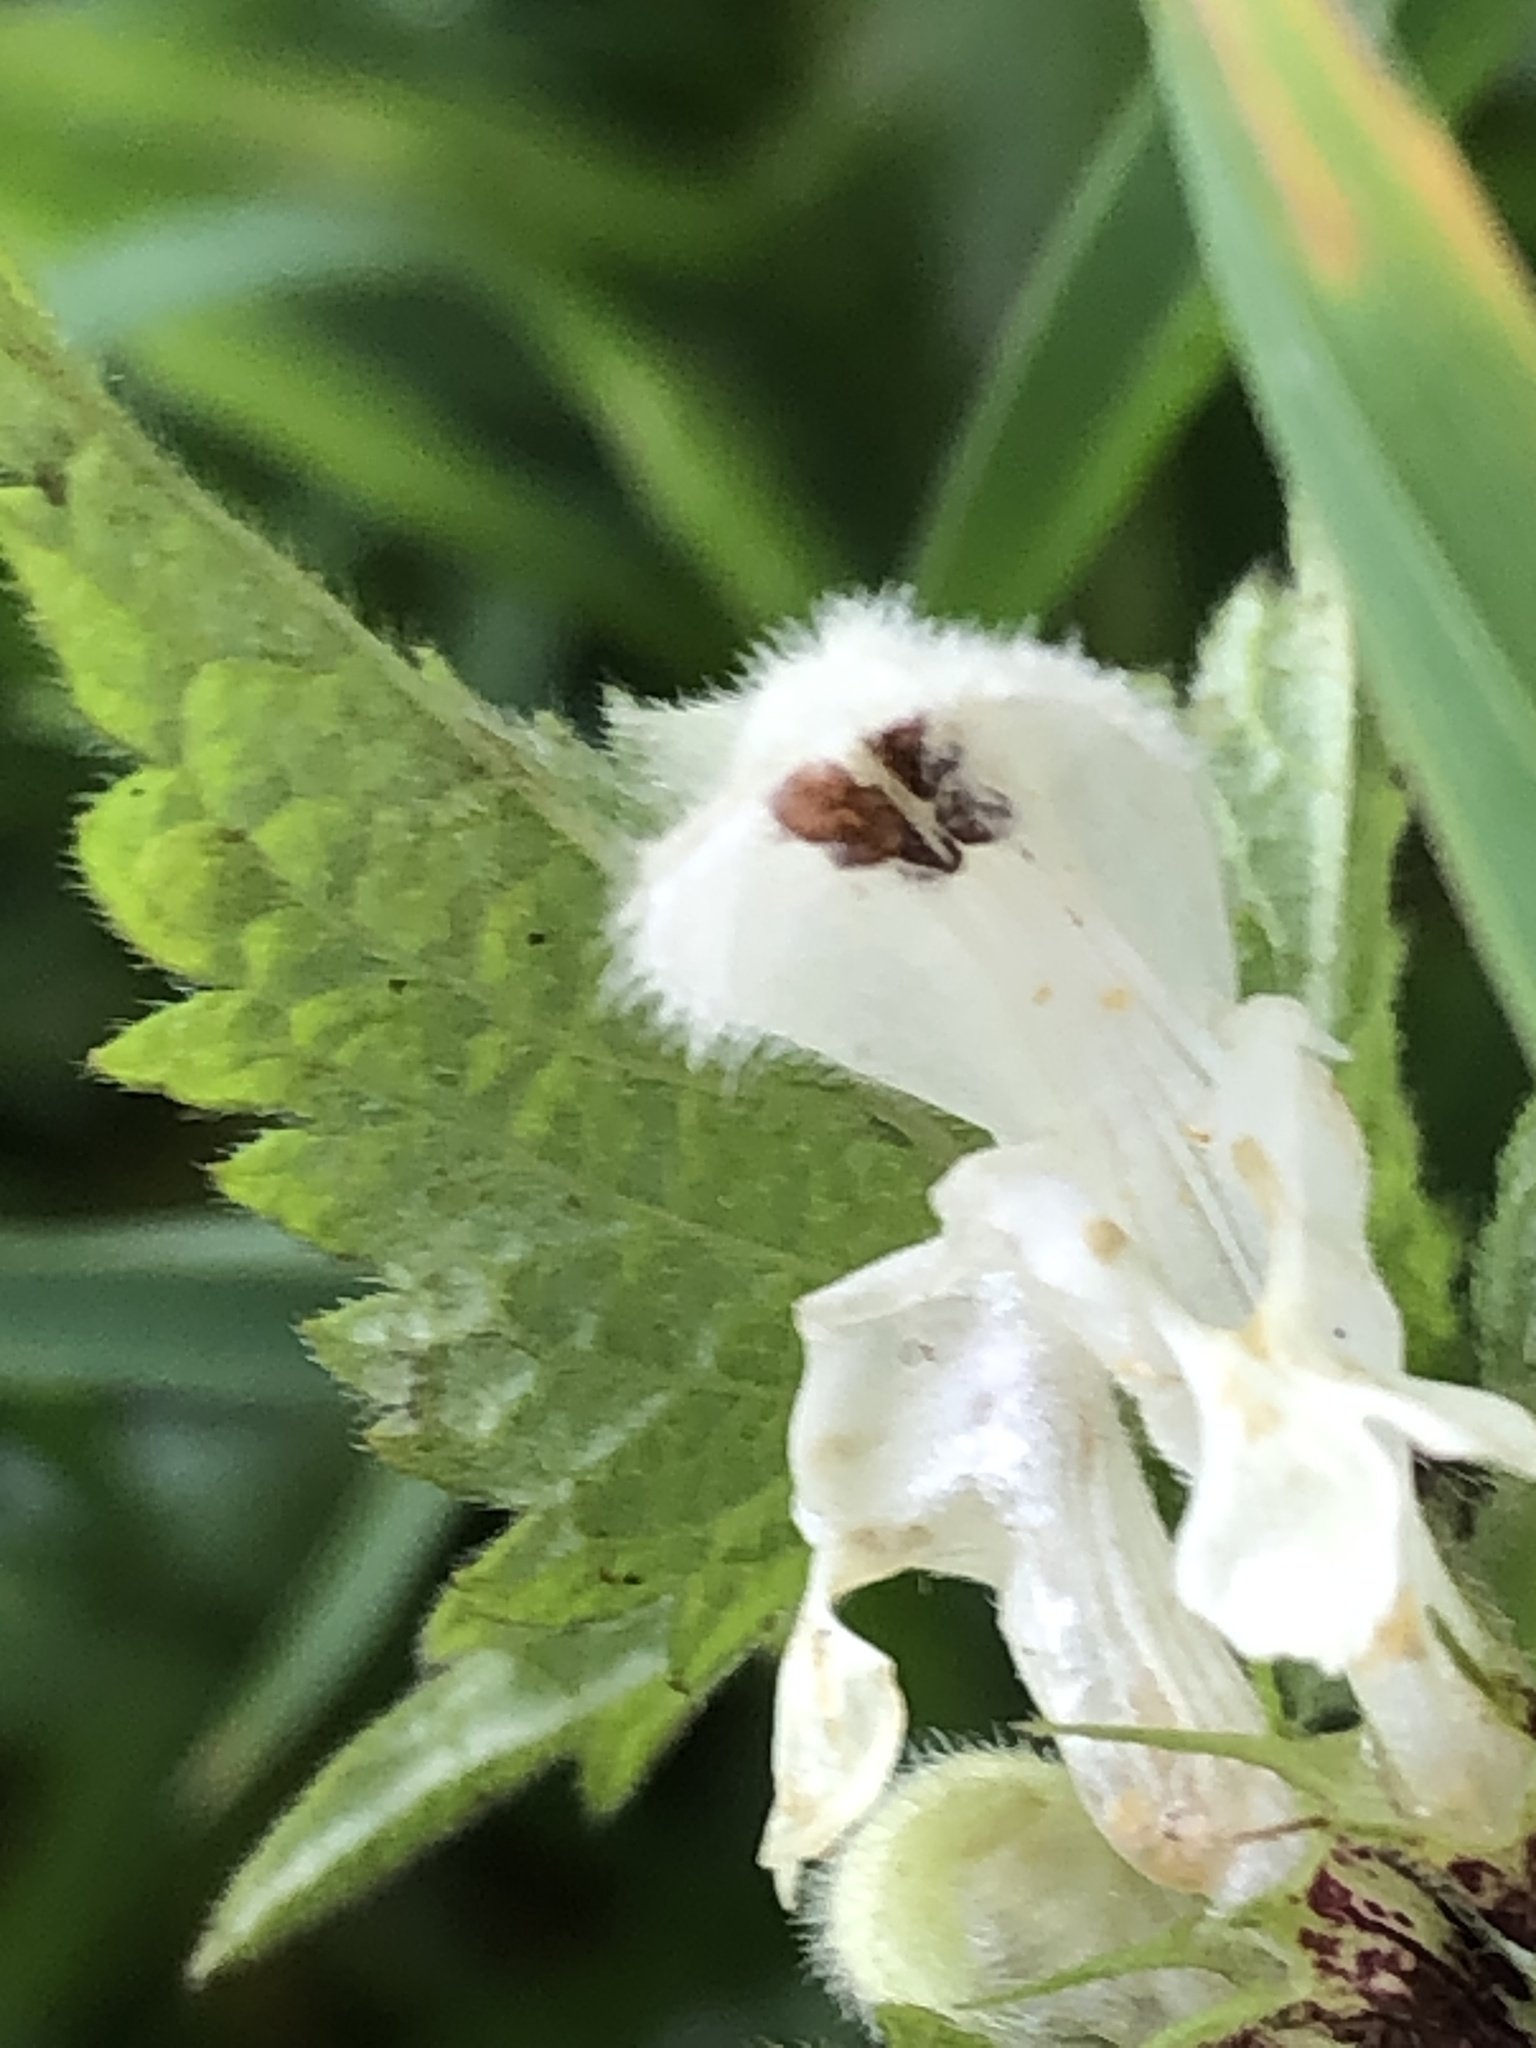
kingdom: Plantae
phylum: Tracheophyta
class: Magnoliopsida
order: Lamiales
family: Lamiaceae
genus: Lamium
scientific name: Lamium album
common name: White dead-nettle
